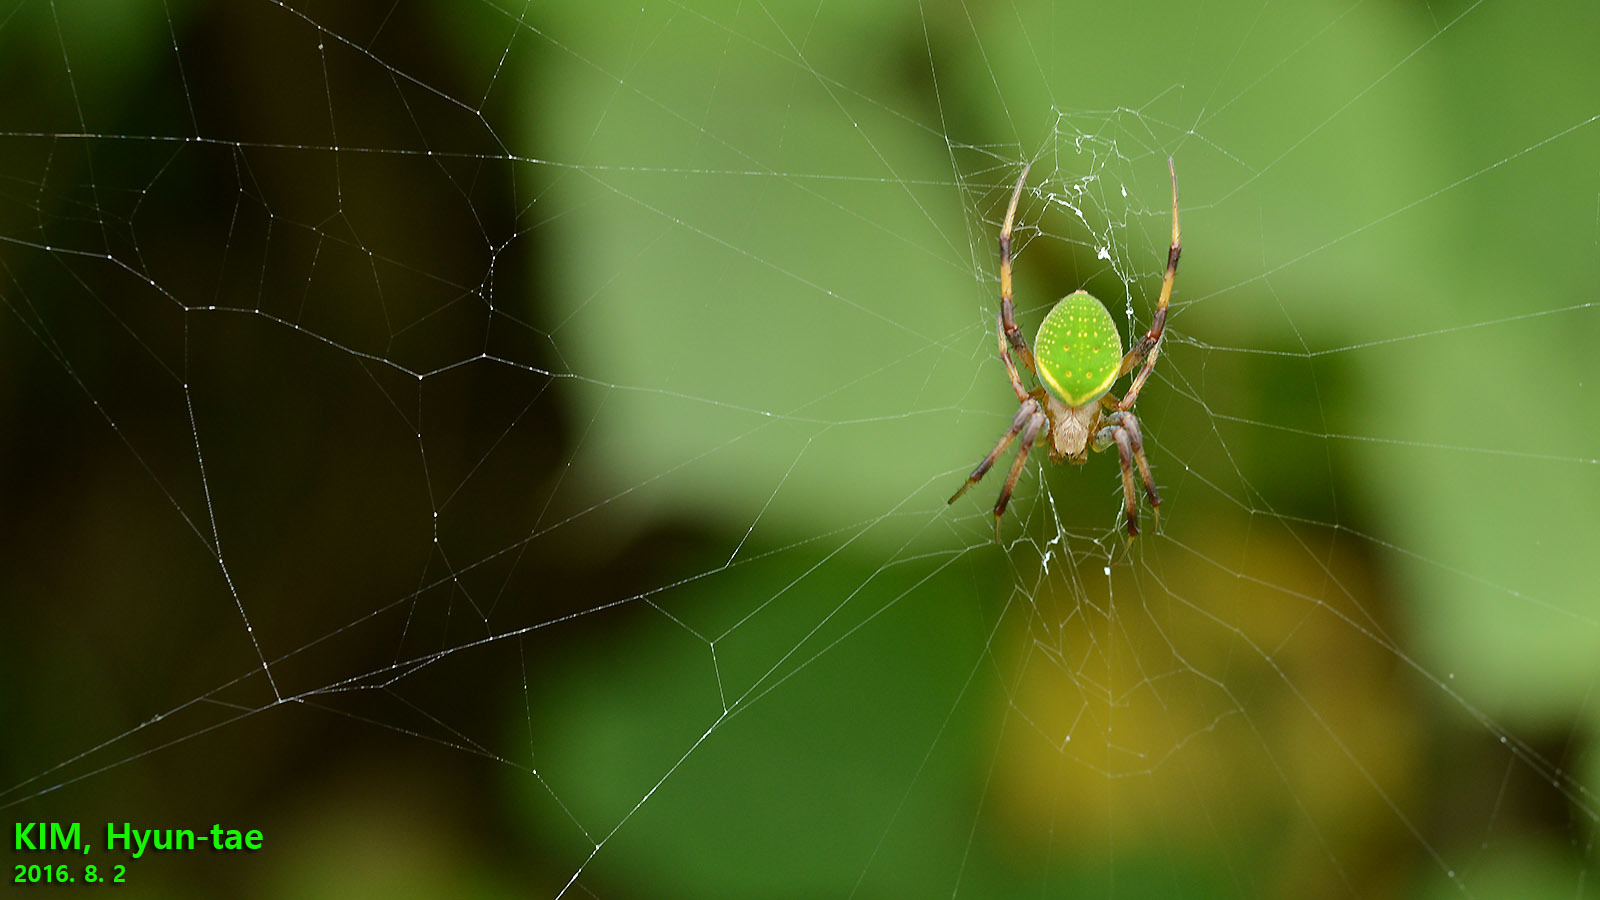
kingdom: Animalia
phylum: Arthropoda
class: Arachnida
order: Araneae
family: Araneidae
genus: Neoscona
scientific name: Neoscona scylloides
